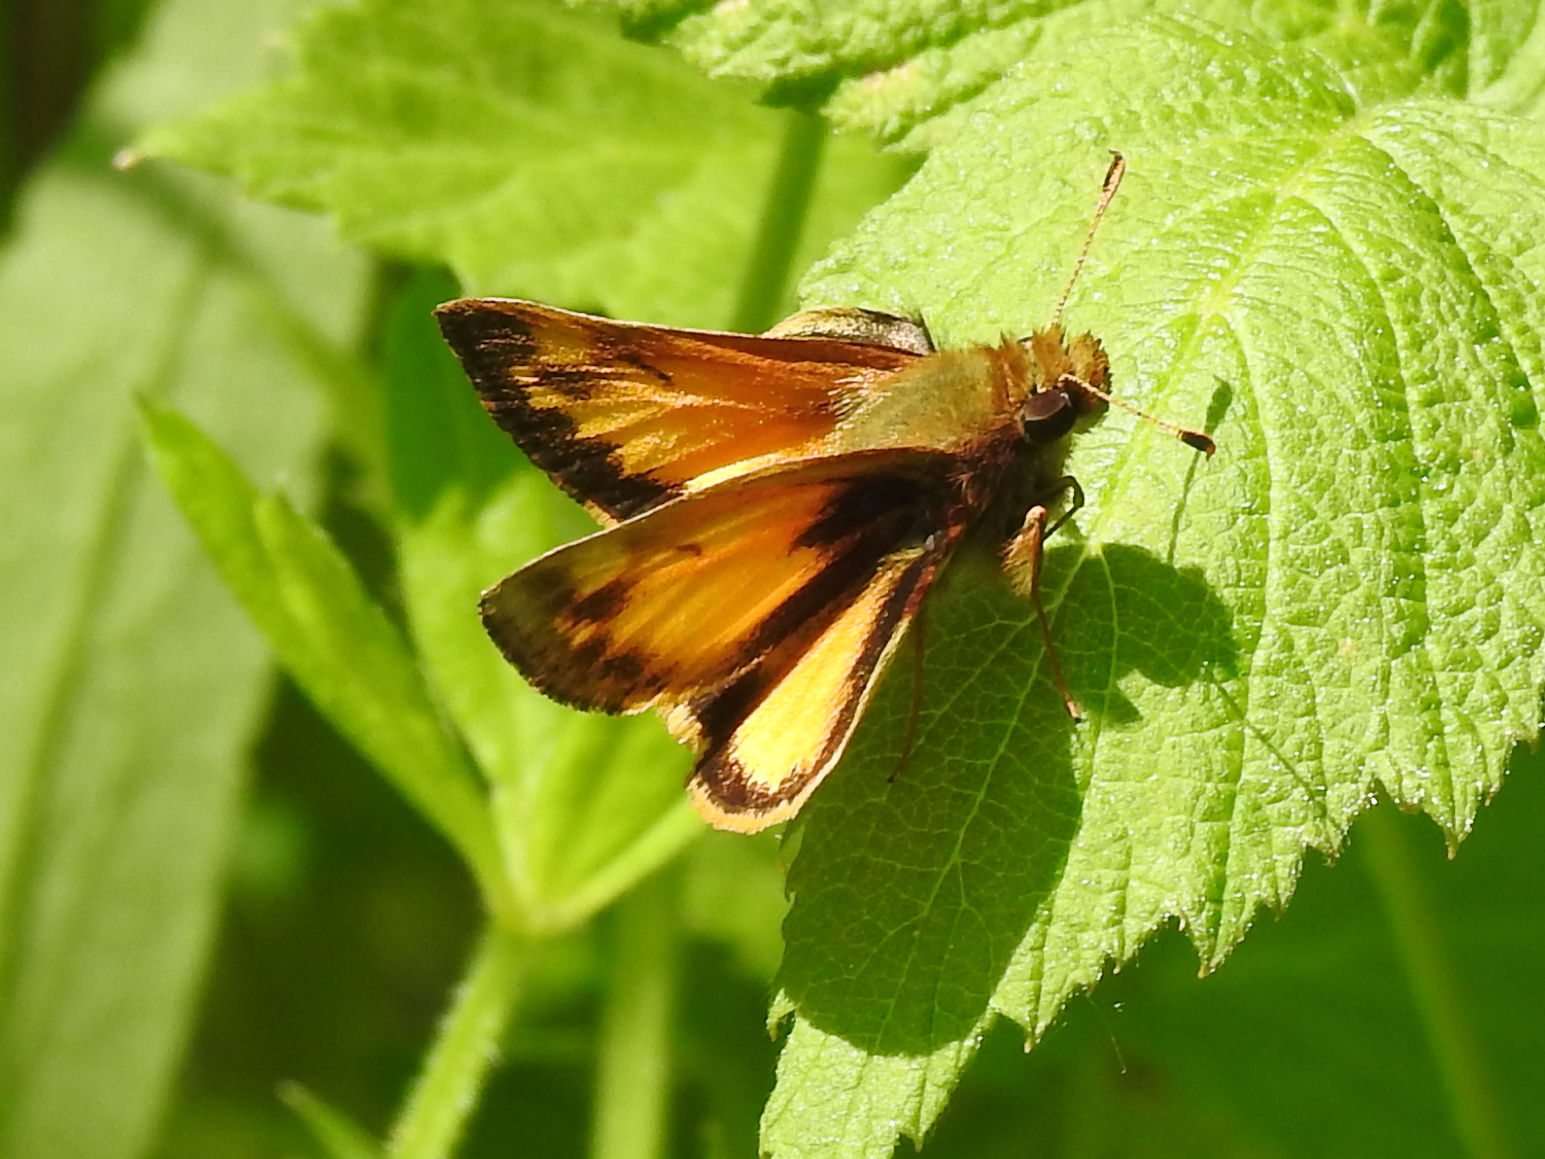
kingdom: Animalia
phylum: Arthropoda
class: Insecta
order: Lepidoptera
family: Hesperiidae
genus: Lon
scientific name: Lon zabulon
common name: Zabulon skipper
